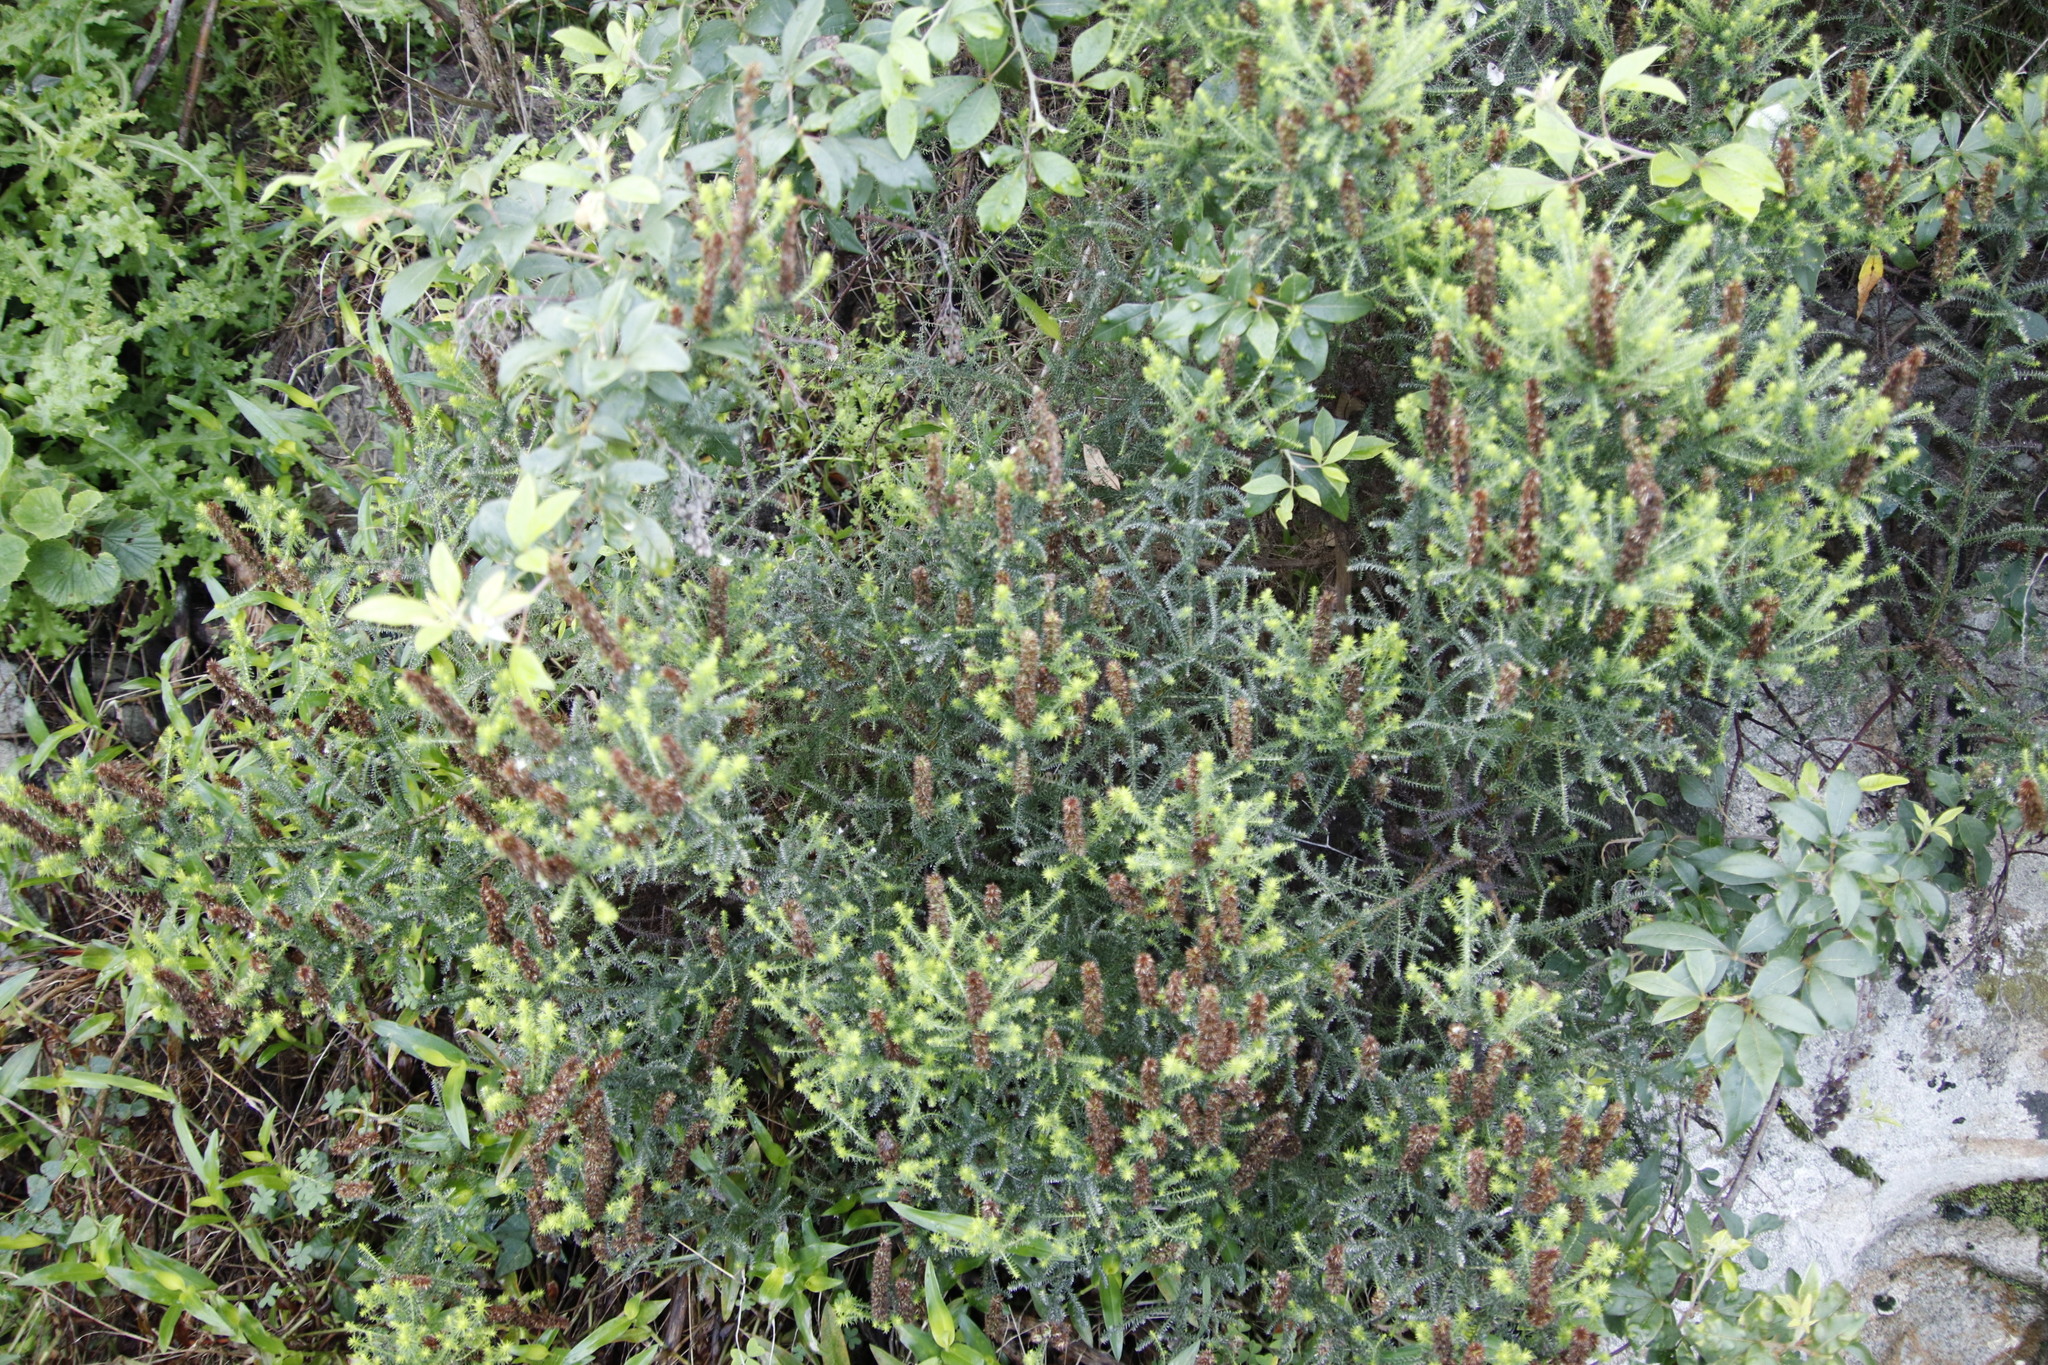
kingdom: Plantae
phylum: Tracheophyta
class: Magnoliopsida
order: Asterales
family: Asteraceae
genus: Seriphium
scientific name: Seriphium cinereum
